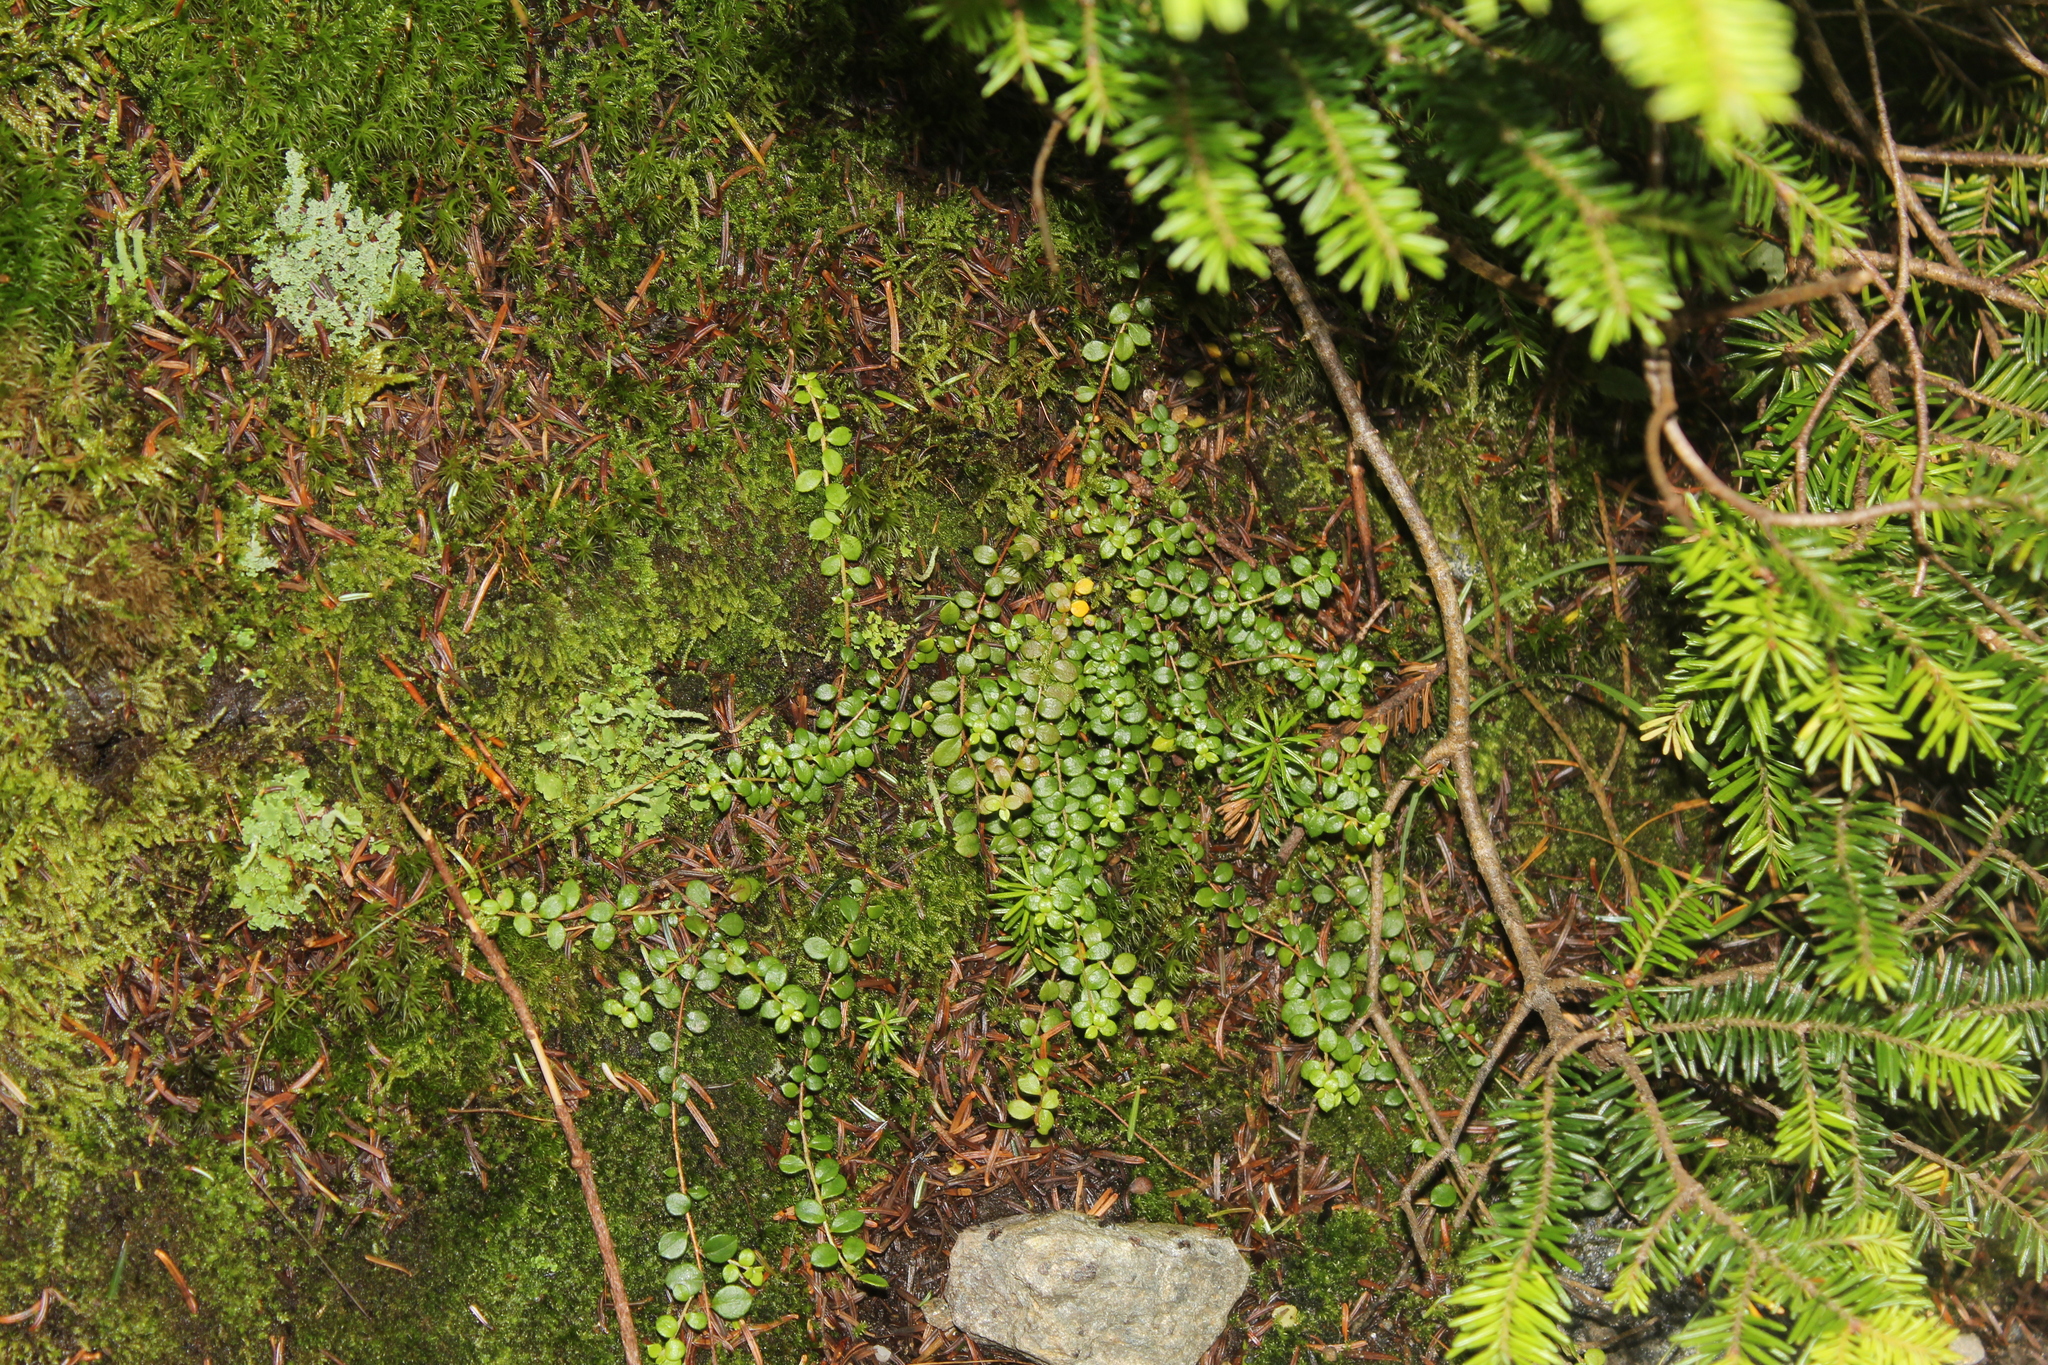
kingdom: Plantae
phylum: Tracheophyta
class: Magnoliopsida
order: Ericales
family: Ericaceae
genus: Gaultheria
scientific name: Gaultheria hispidula
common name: Cancer wintergreen
